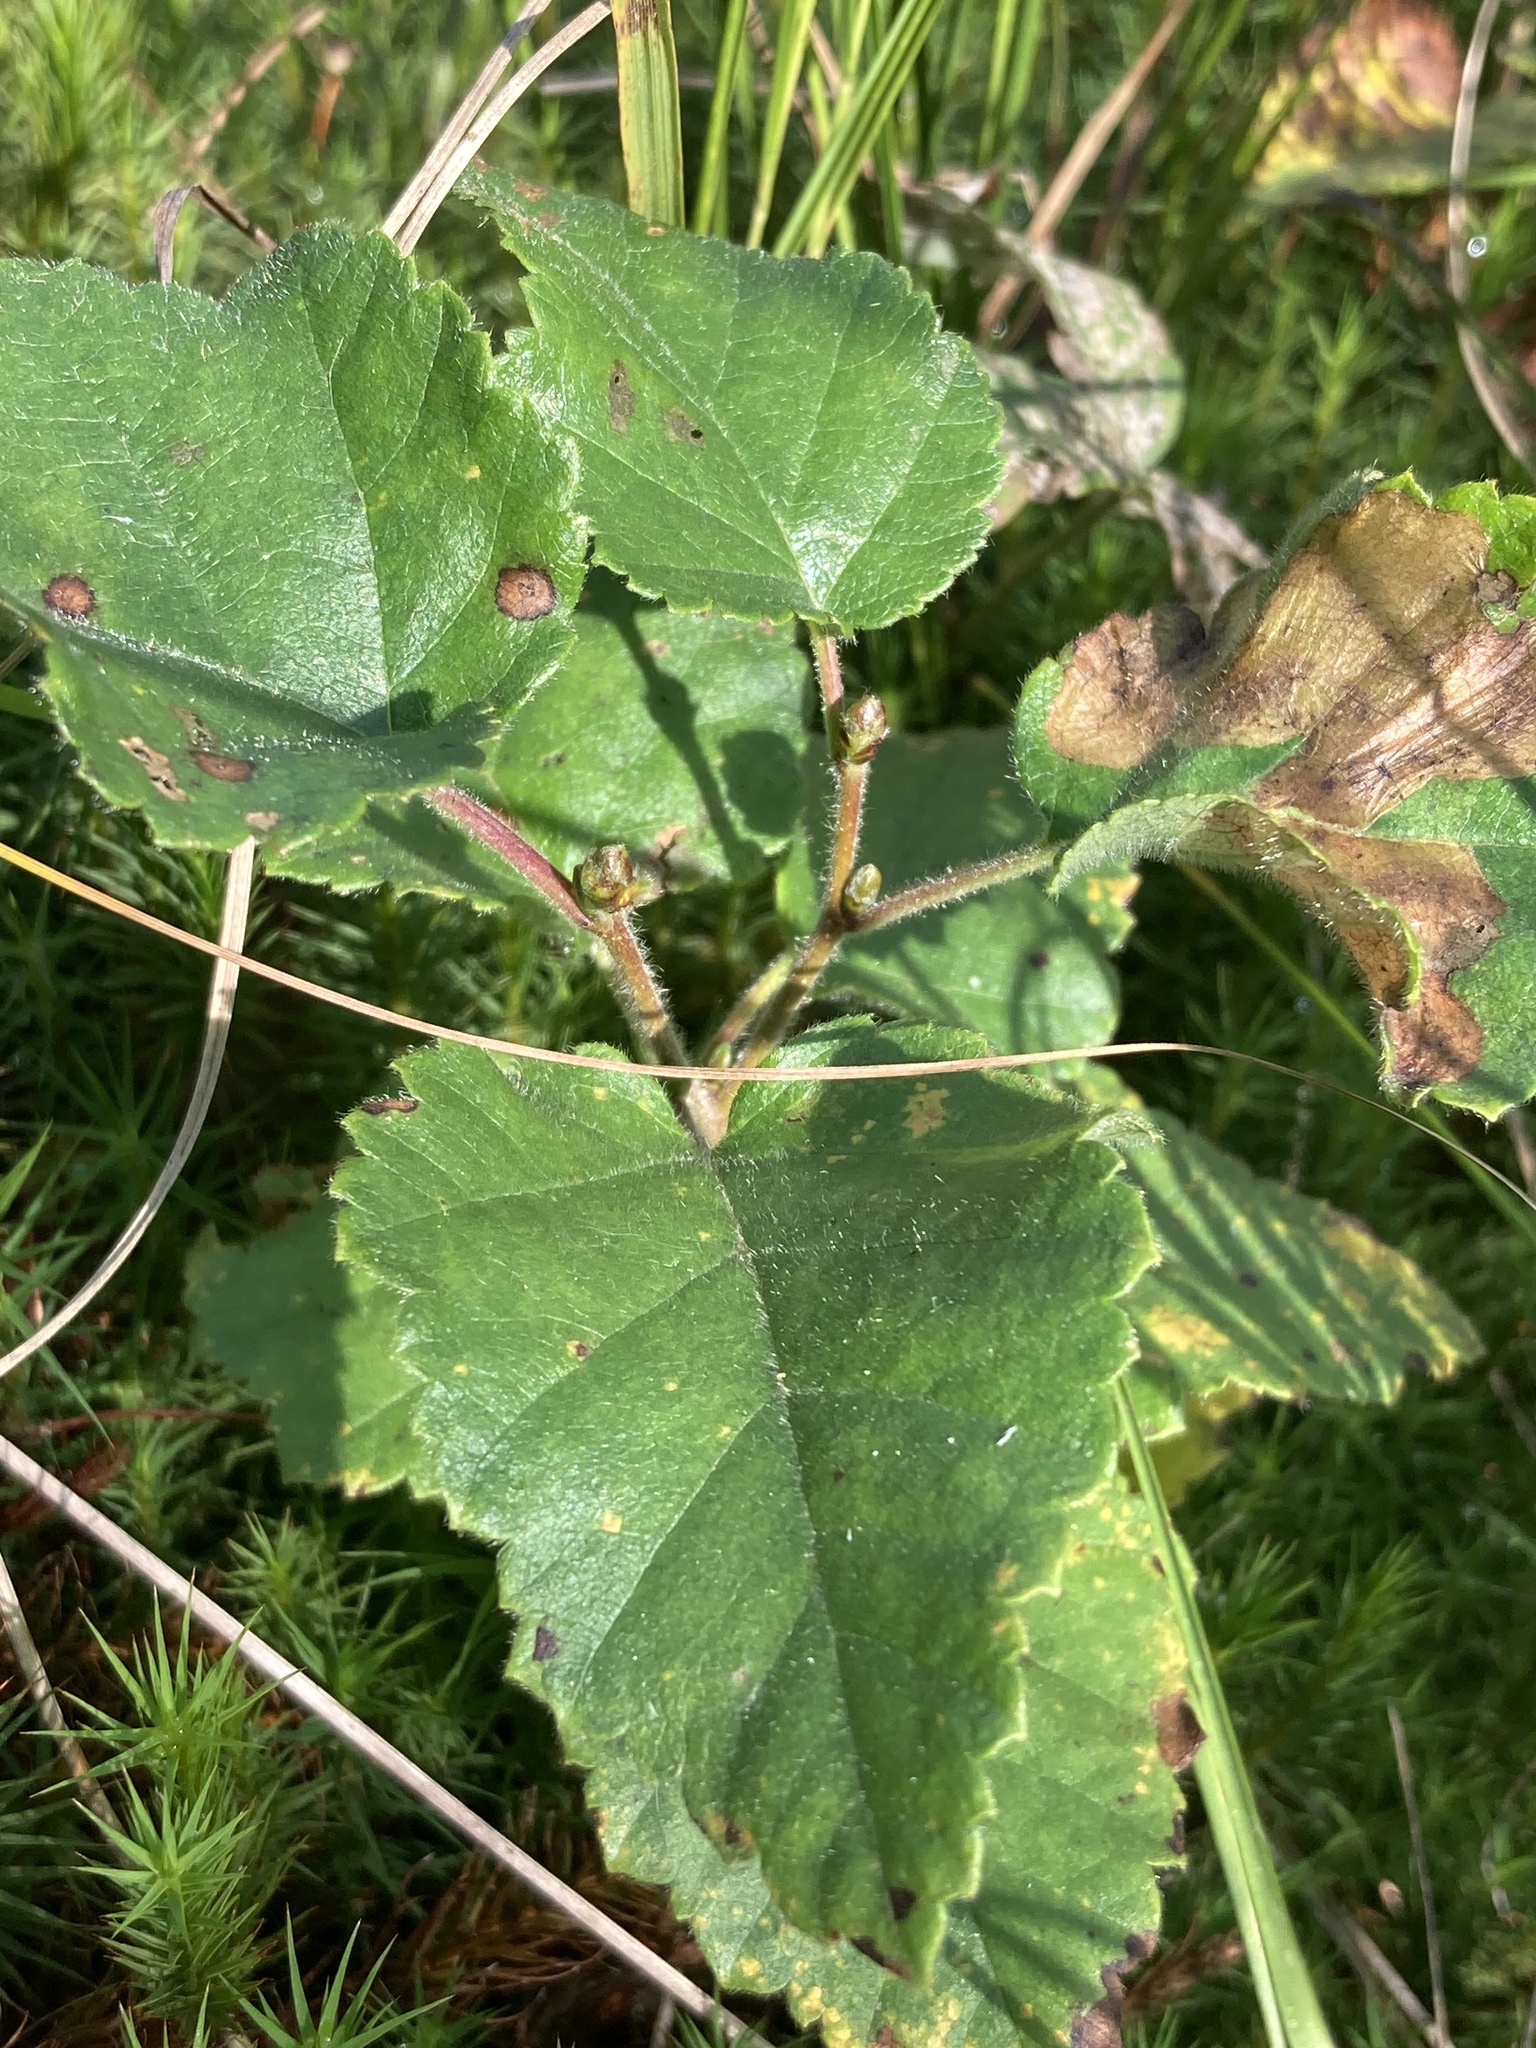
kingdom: Plantae
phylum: Tracheophyta
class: Magnoliopsida
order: Fagales
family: Betulaceae
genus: Betula
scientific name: Betula pubescens
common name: Downy birch
